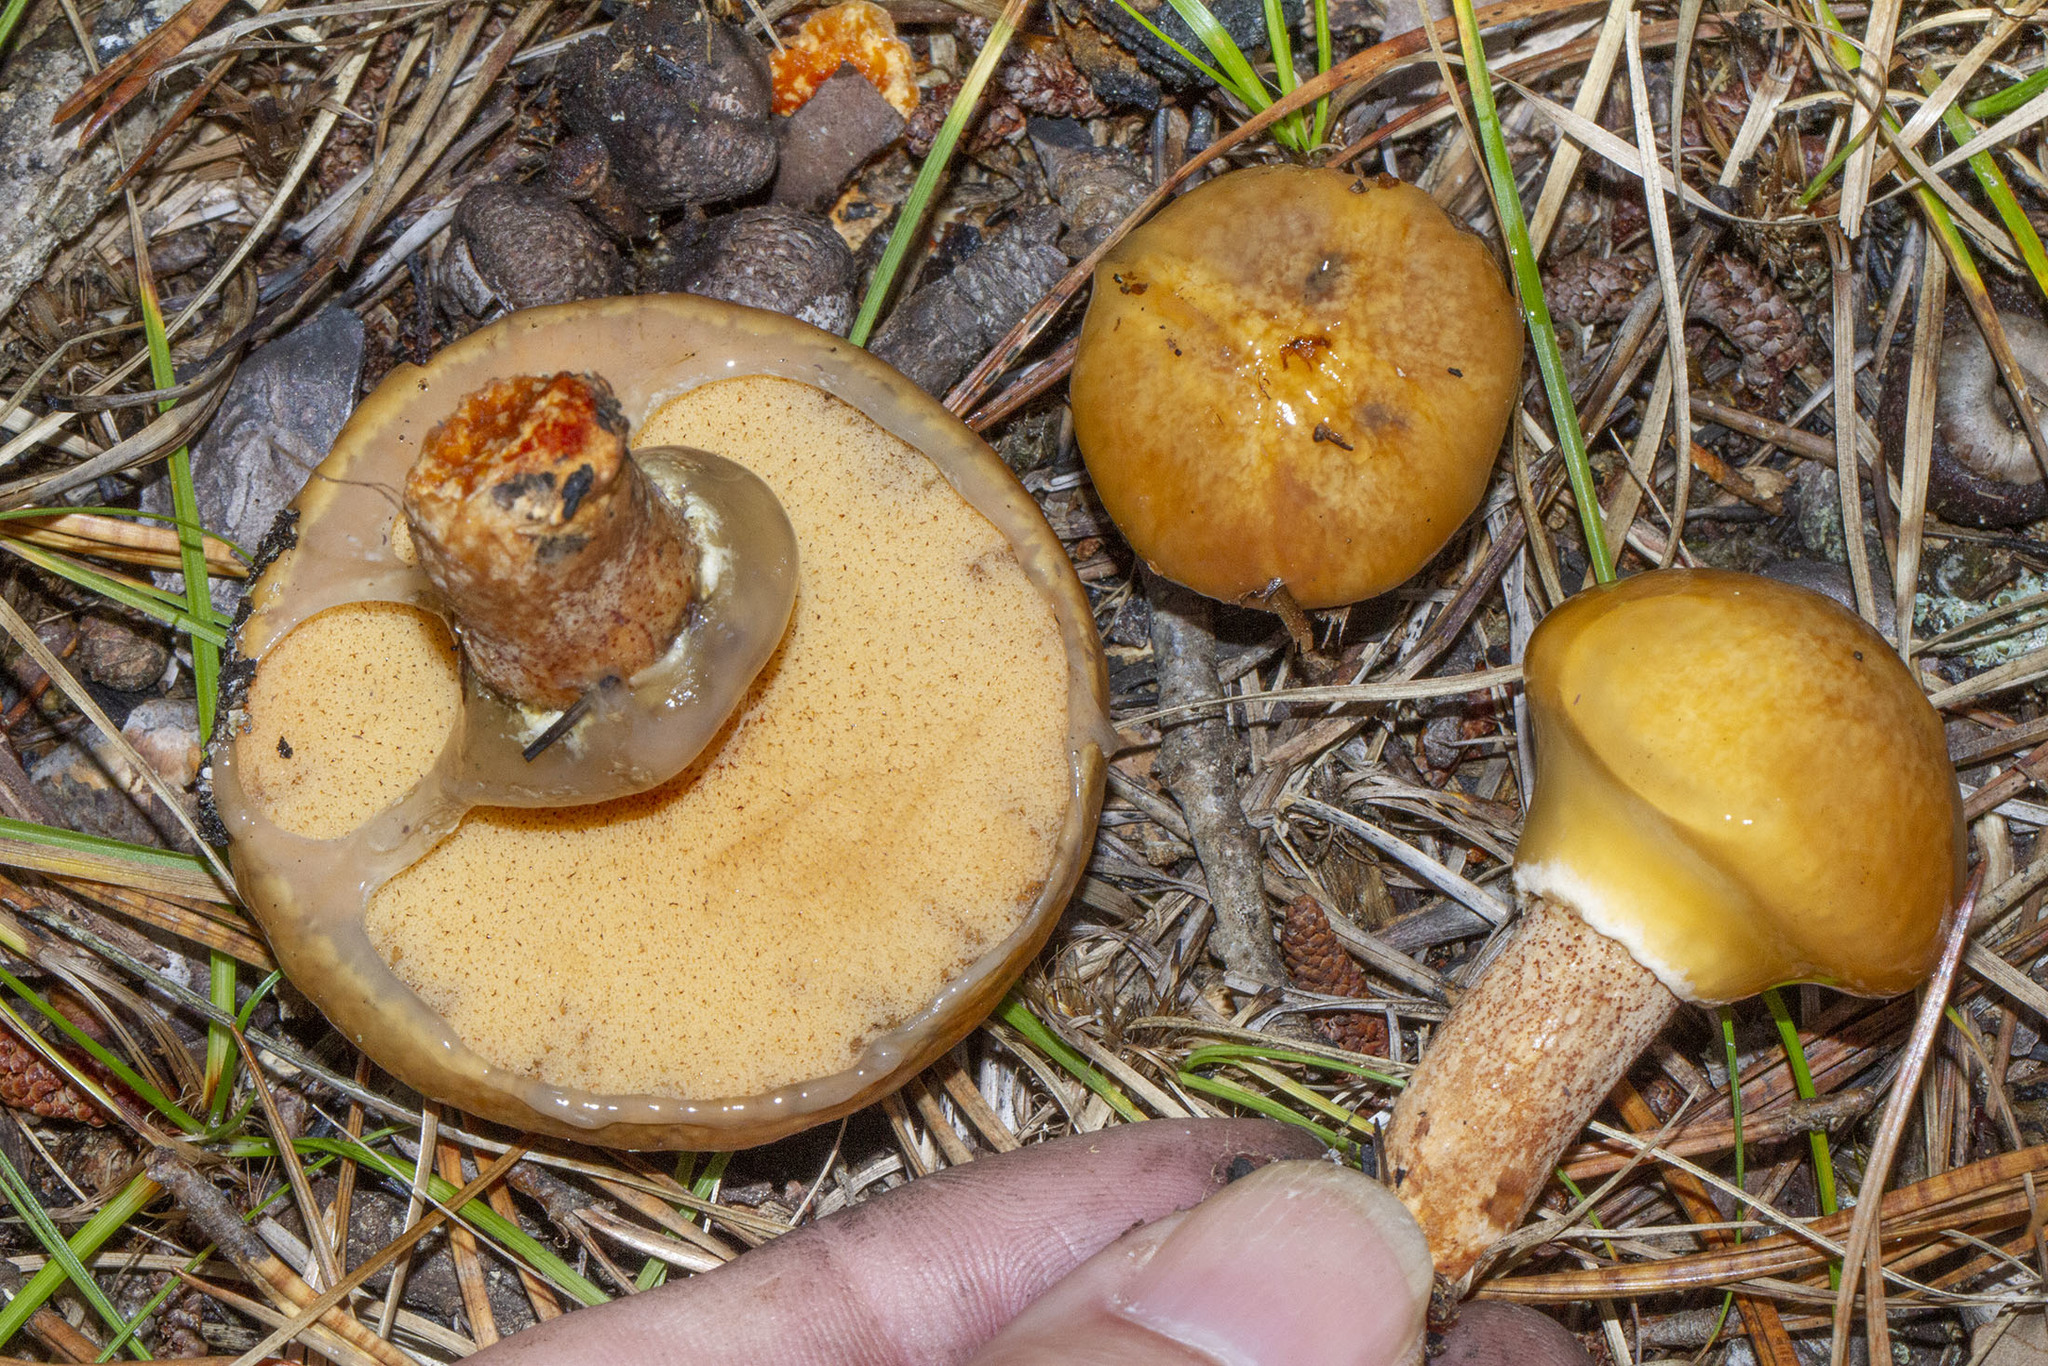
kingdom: Fungi
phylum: Basidiomycota
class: Agaricomycetes
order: Boletales
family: Suillaceae
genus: Suillus
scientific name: Suillus salmonicolor
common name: Slippery jill
